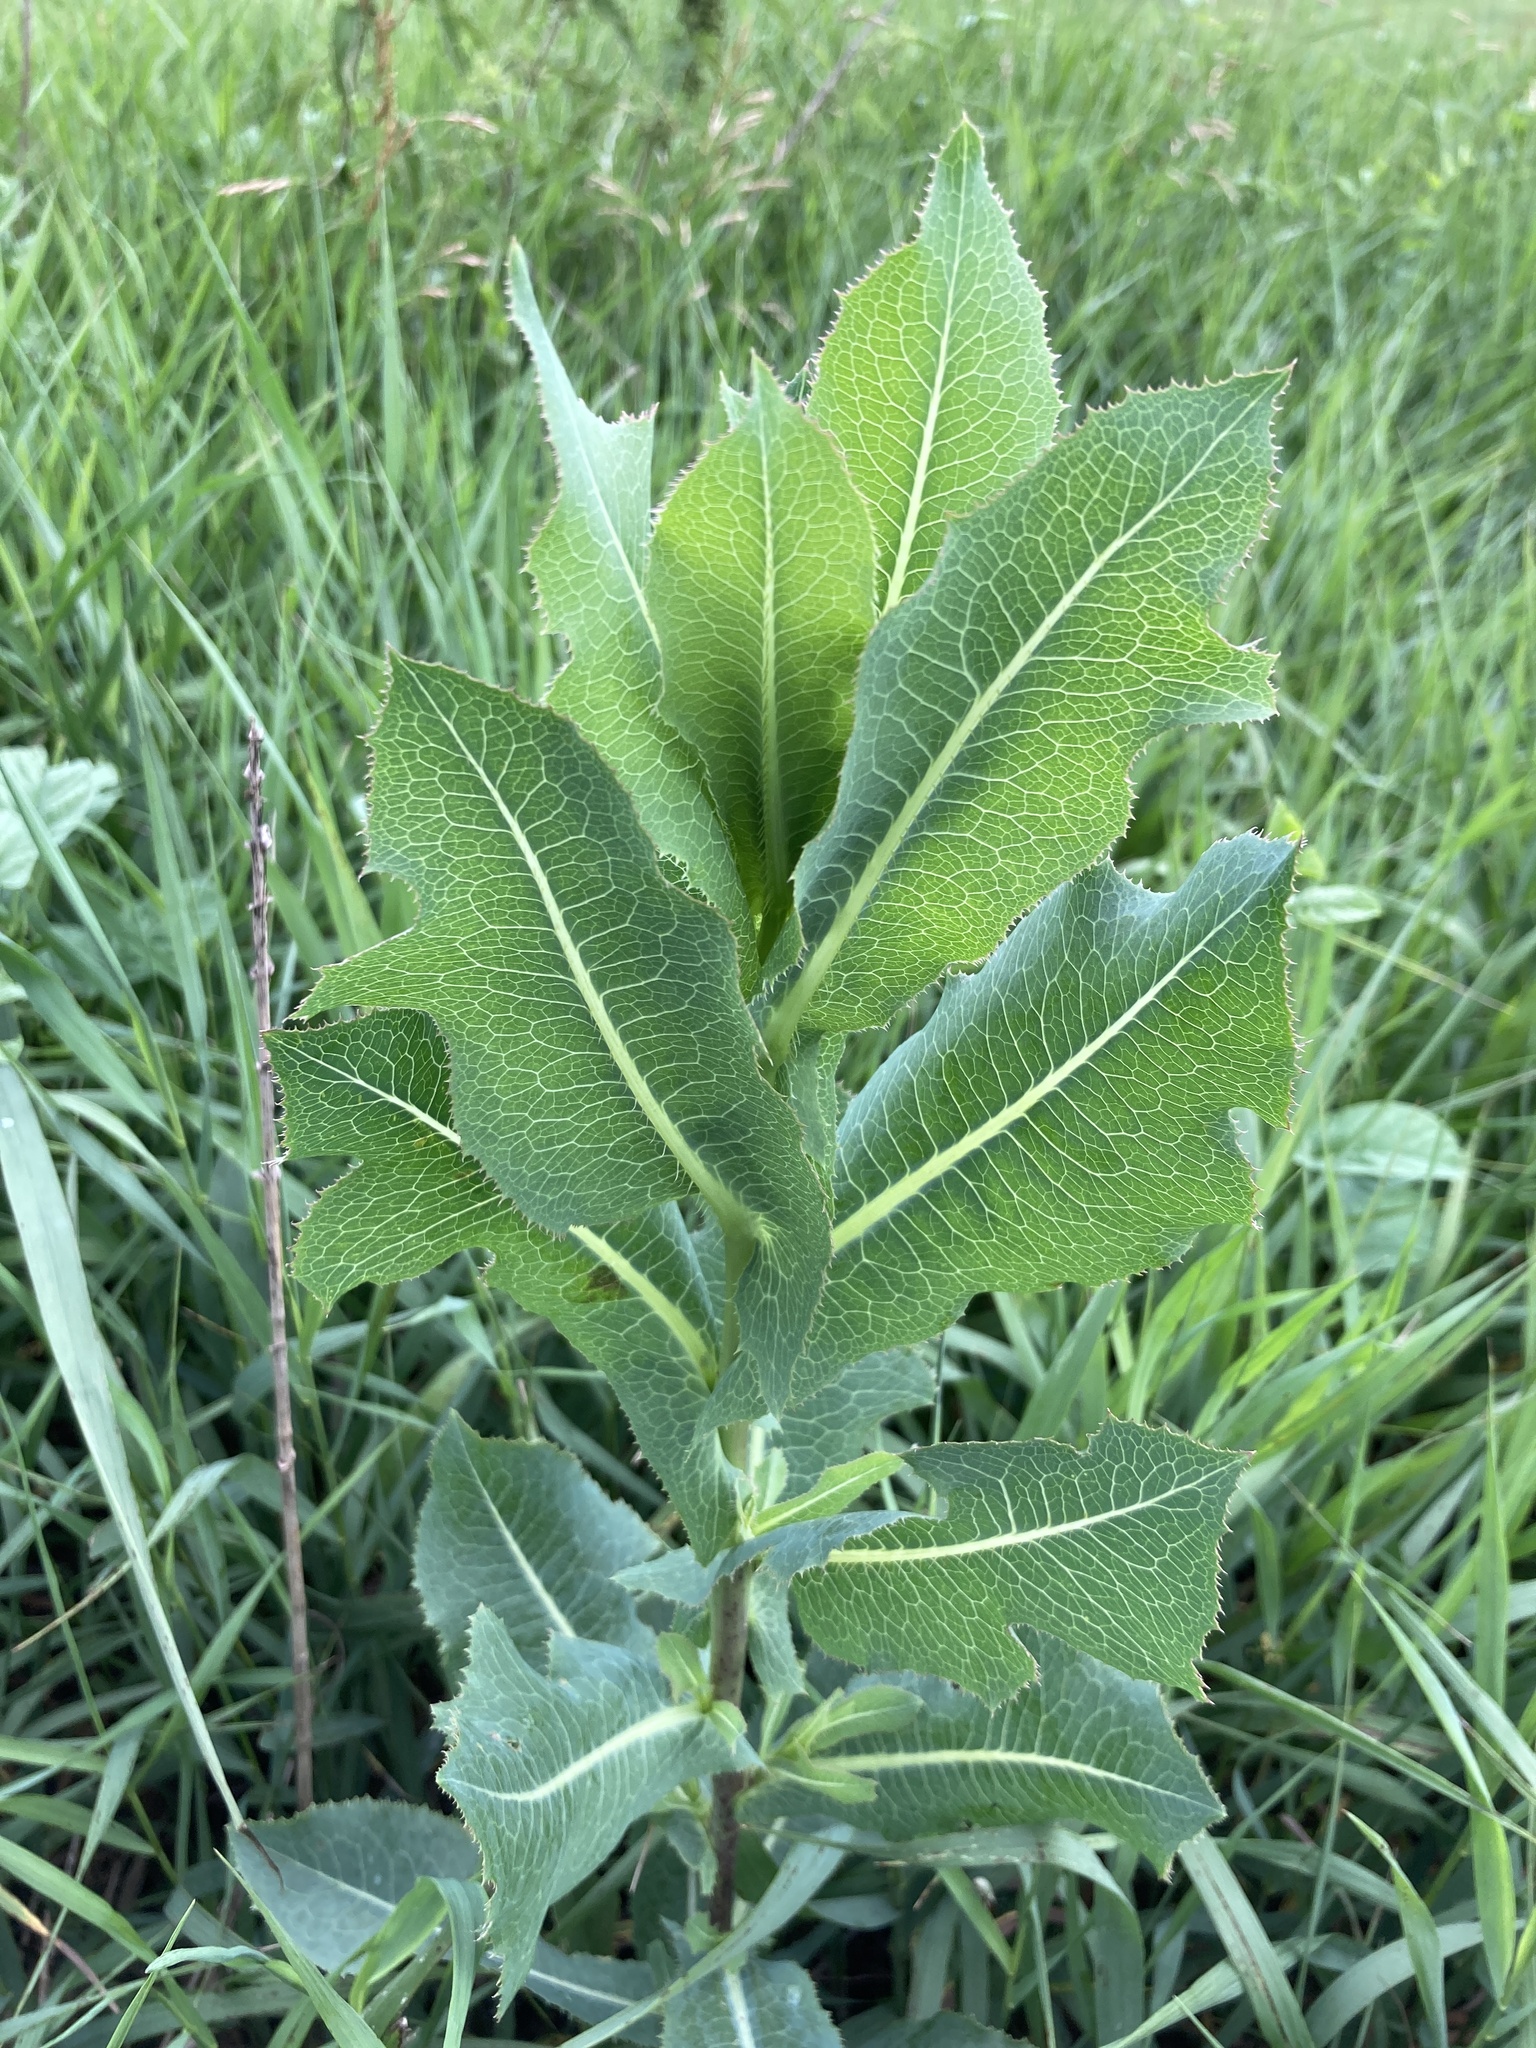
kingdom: Plantae
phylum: Tracheophyta
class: Magnoliopsida
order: Asterales
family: Asteraceae
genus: Lactuca
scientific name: Lactuca serriola
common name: Prickly lettuce
